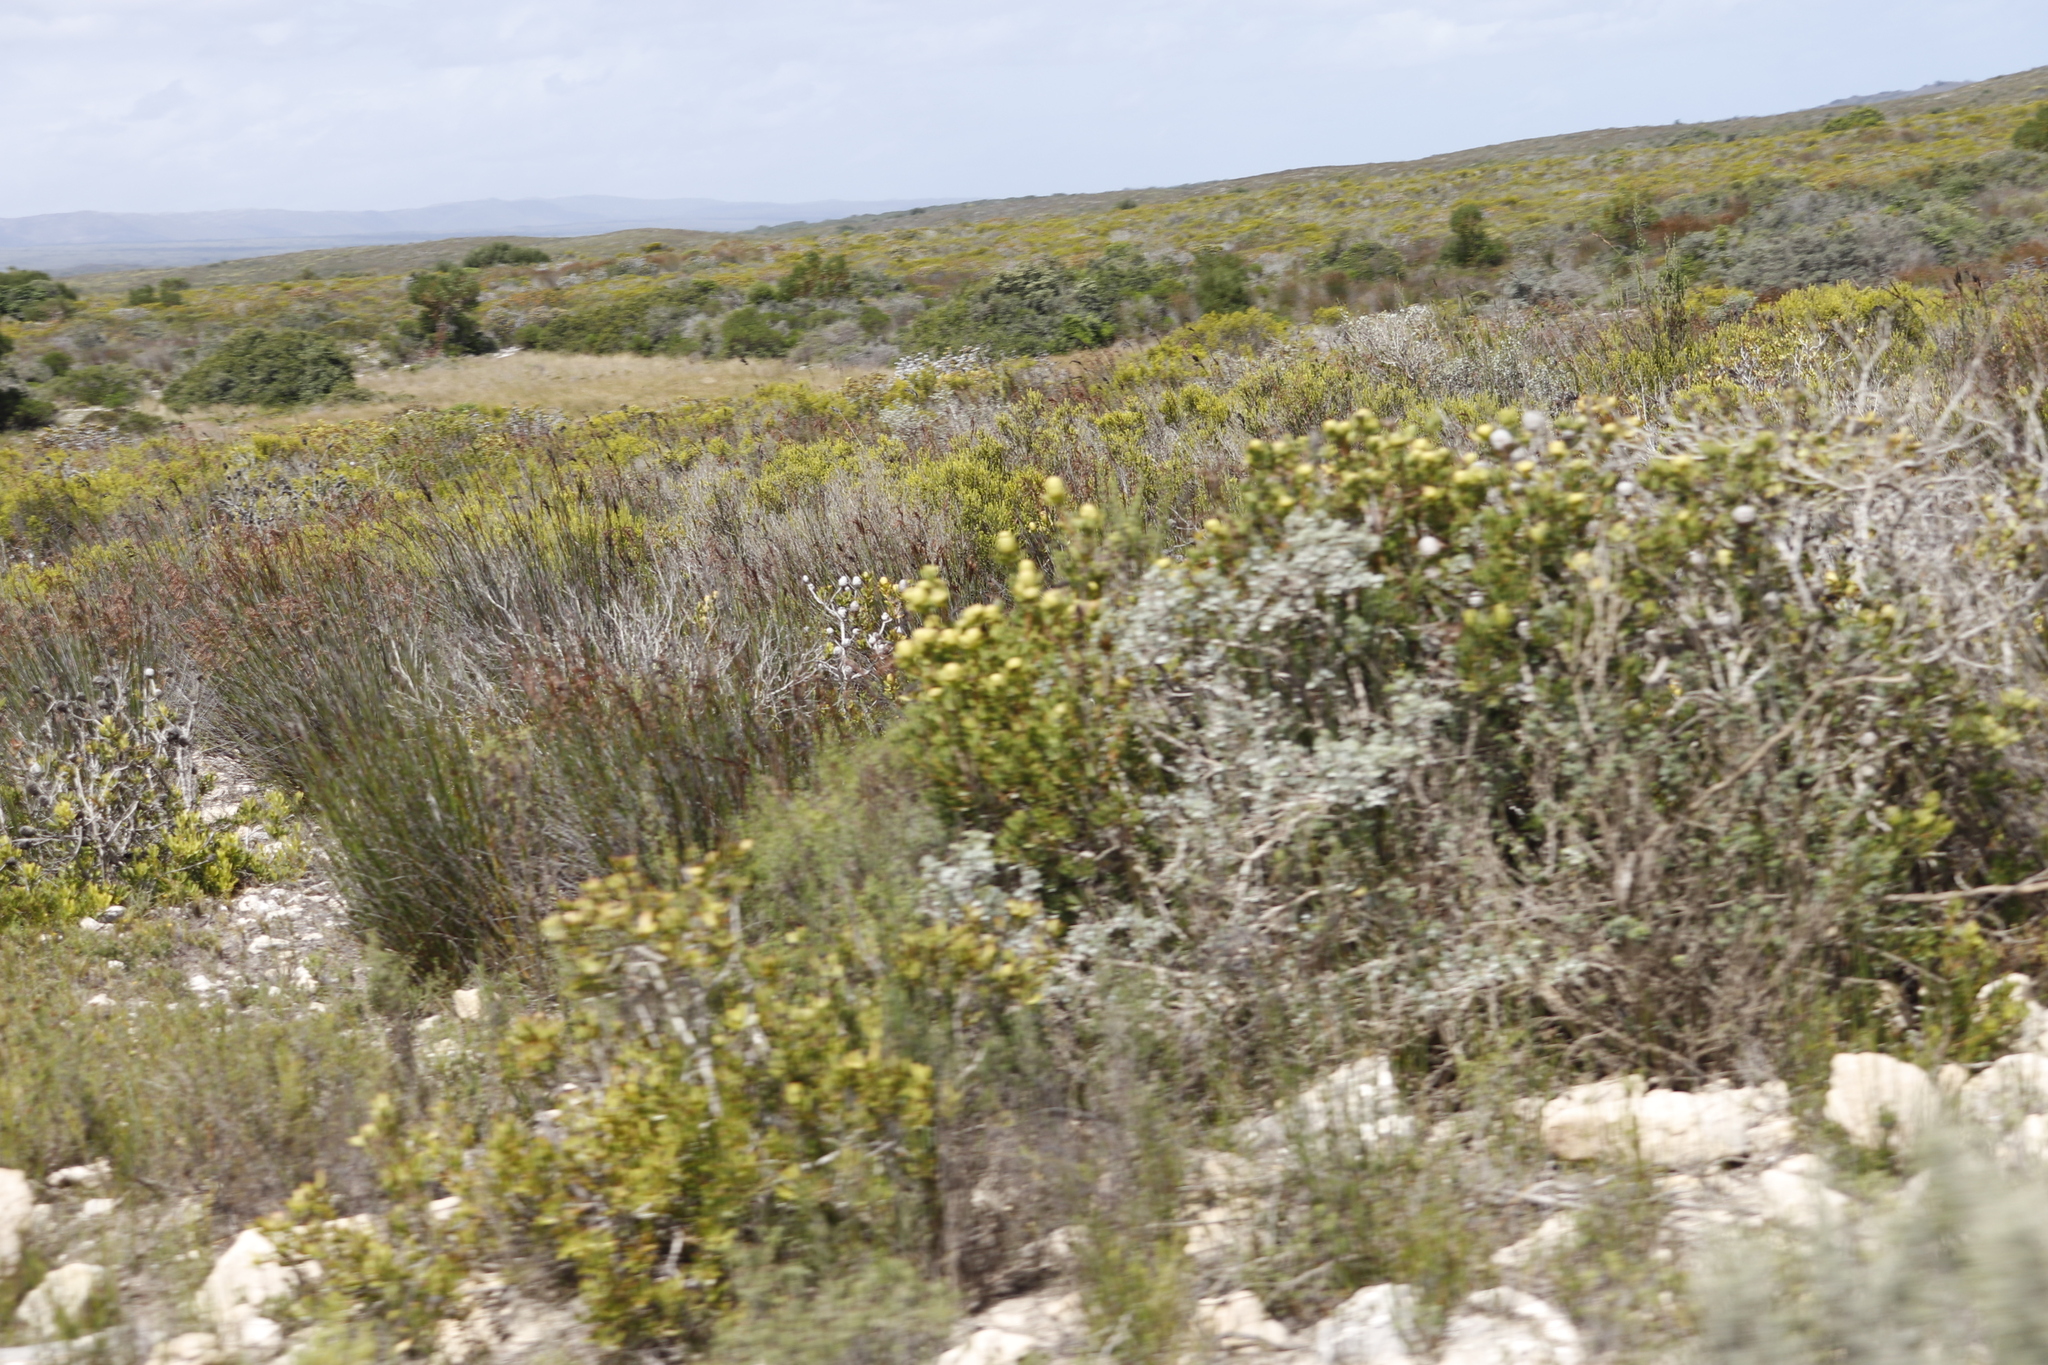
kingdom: Plantae
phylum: Tracheophyta
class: Magnoliopsida
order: Proteales
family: Proteaceae
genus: Leucadendron
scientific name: Leucadendron muirii
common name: Silver-ball conebush
